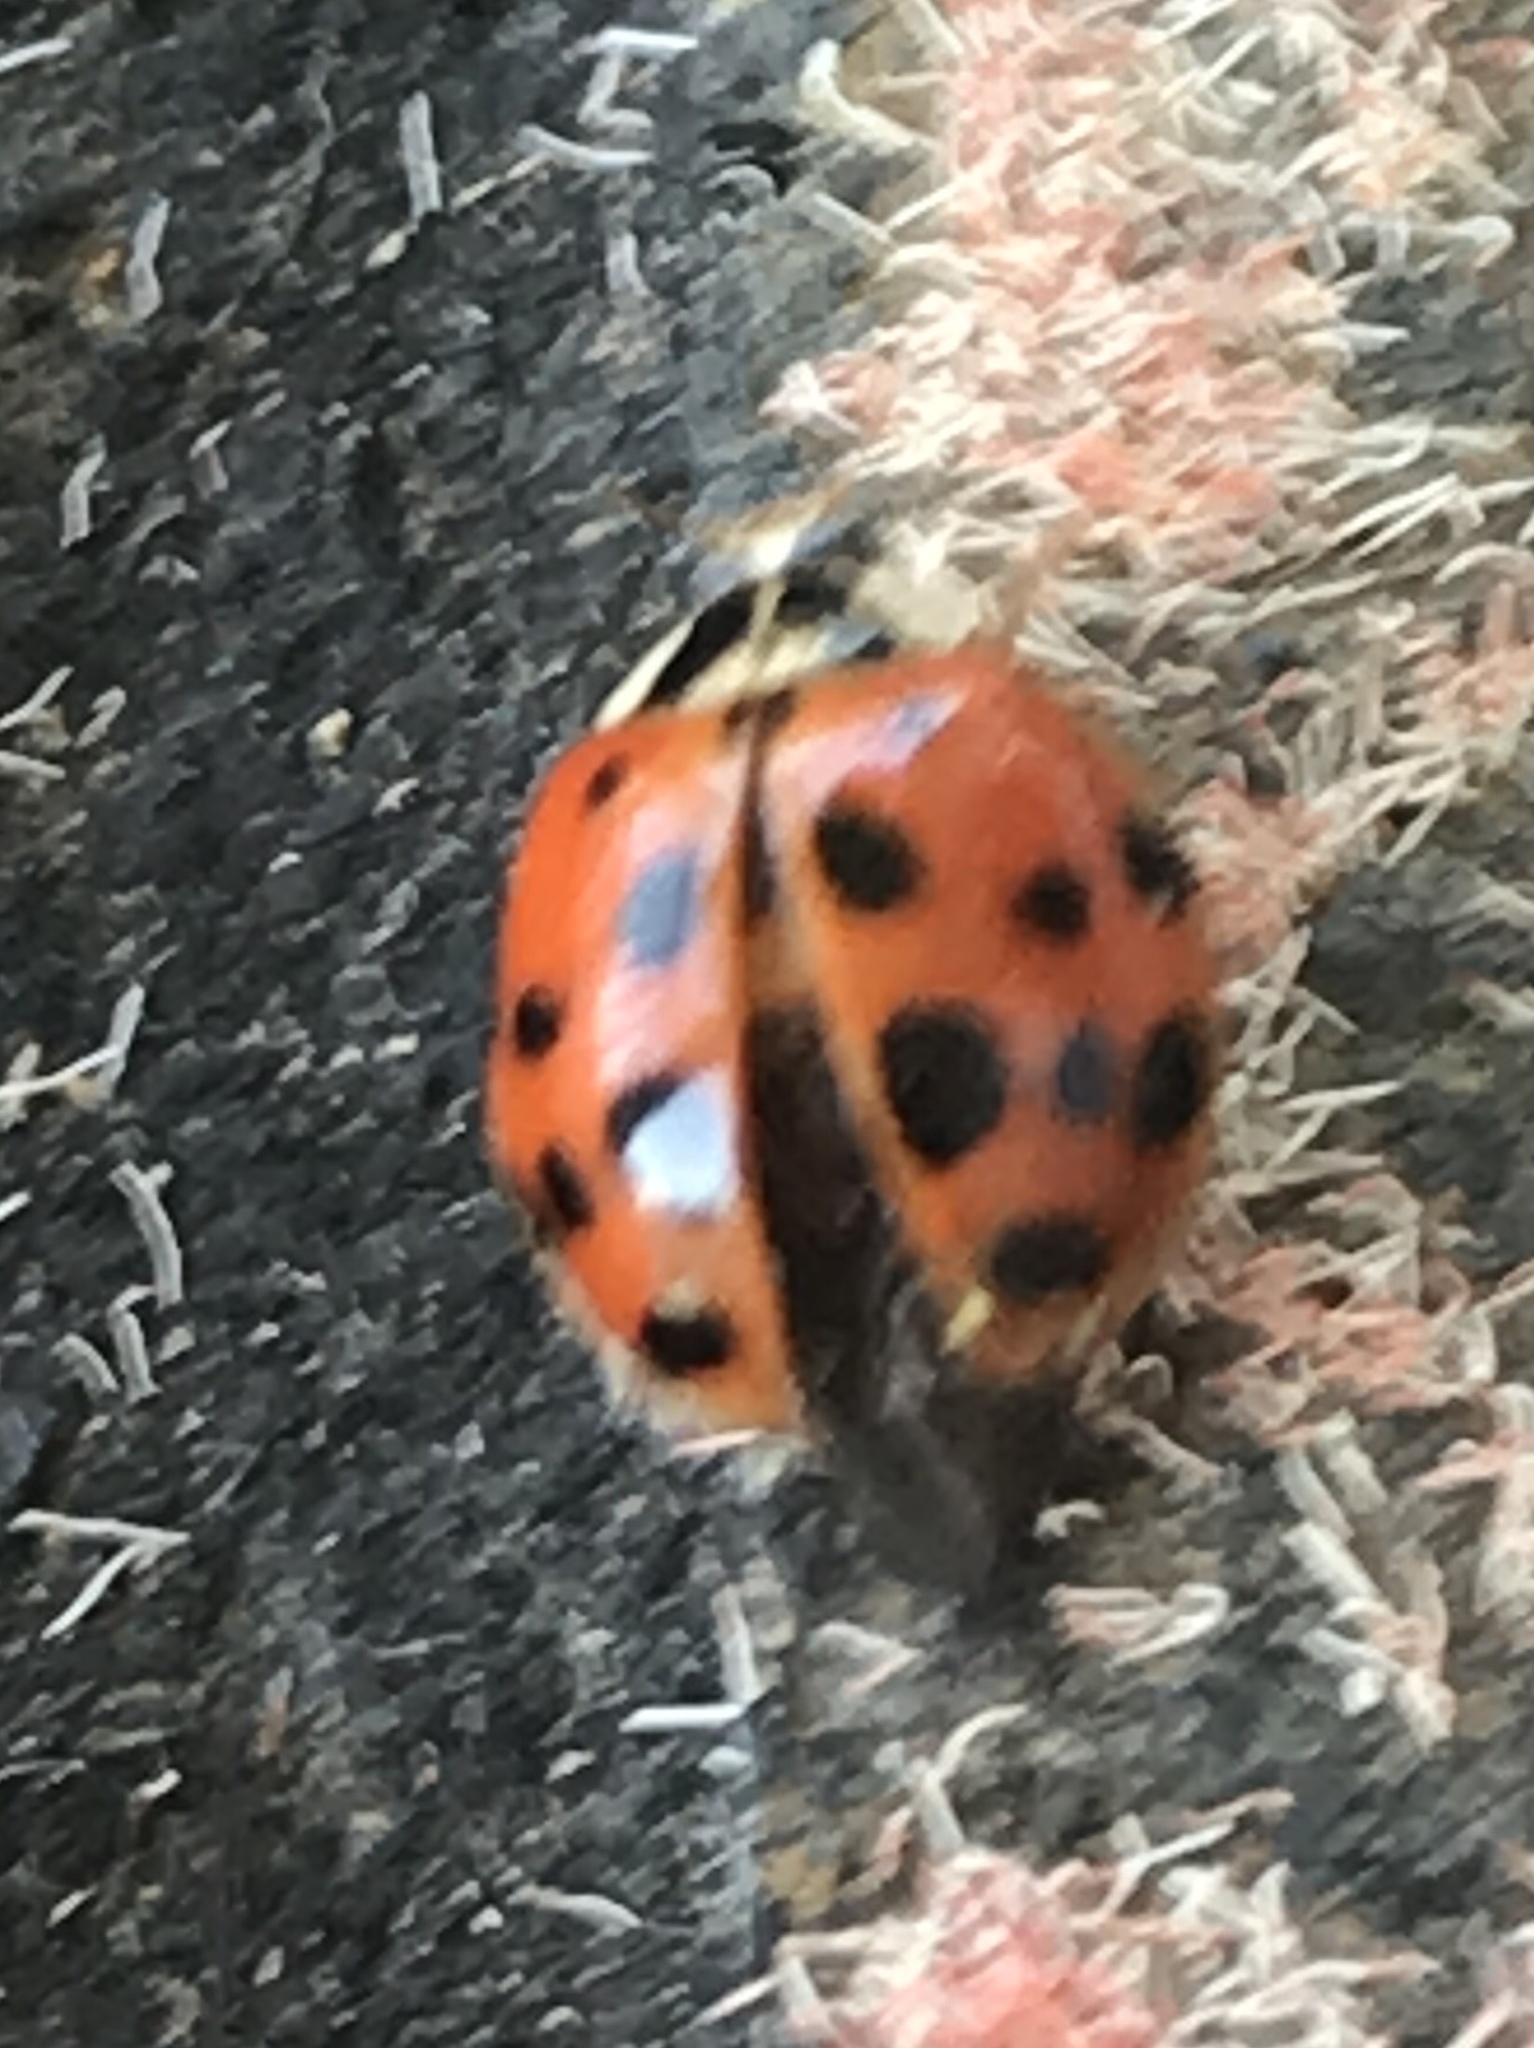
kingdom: Animalia
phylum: Arthropoda
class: Insecta
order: Coleoptera
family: Coccinellidae
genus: Harmonia
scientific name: Harmonia axyridis
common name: Harlequin ladybird
